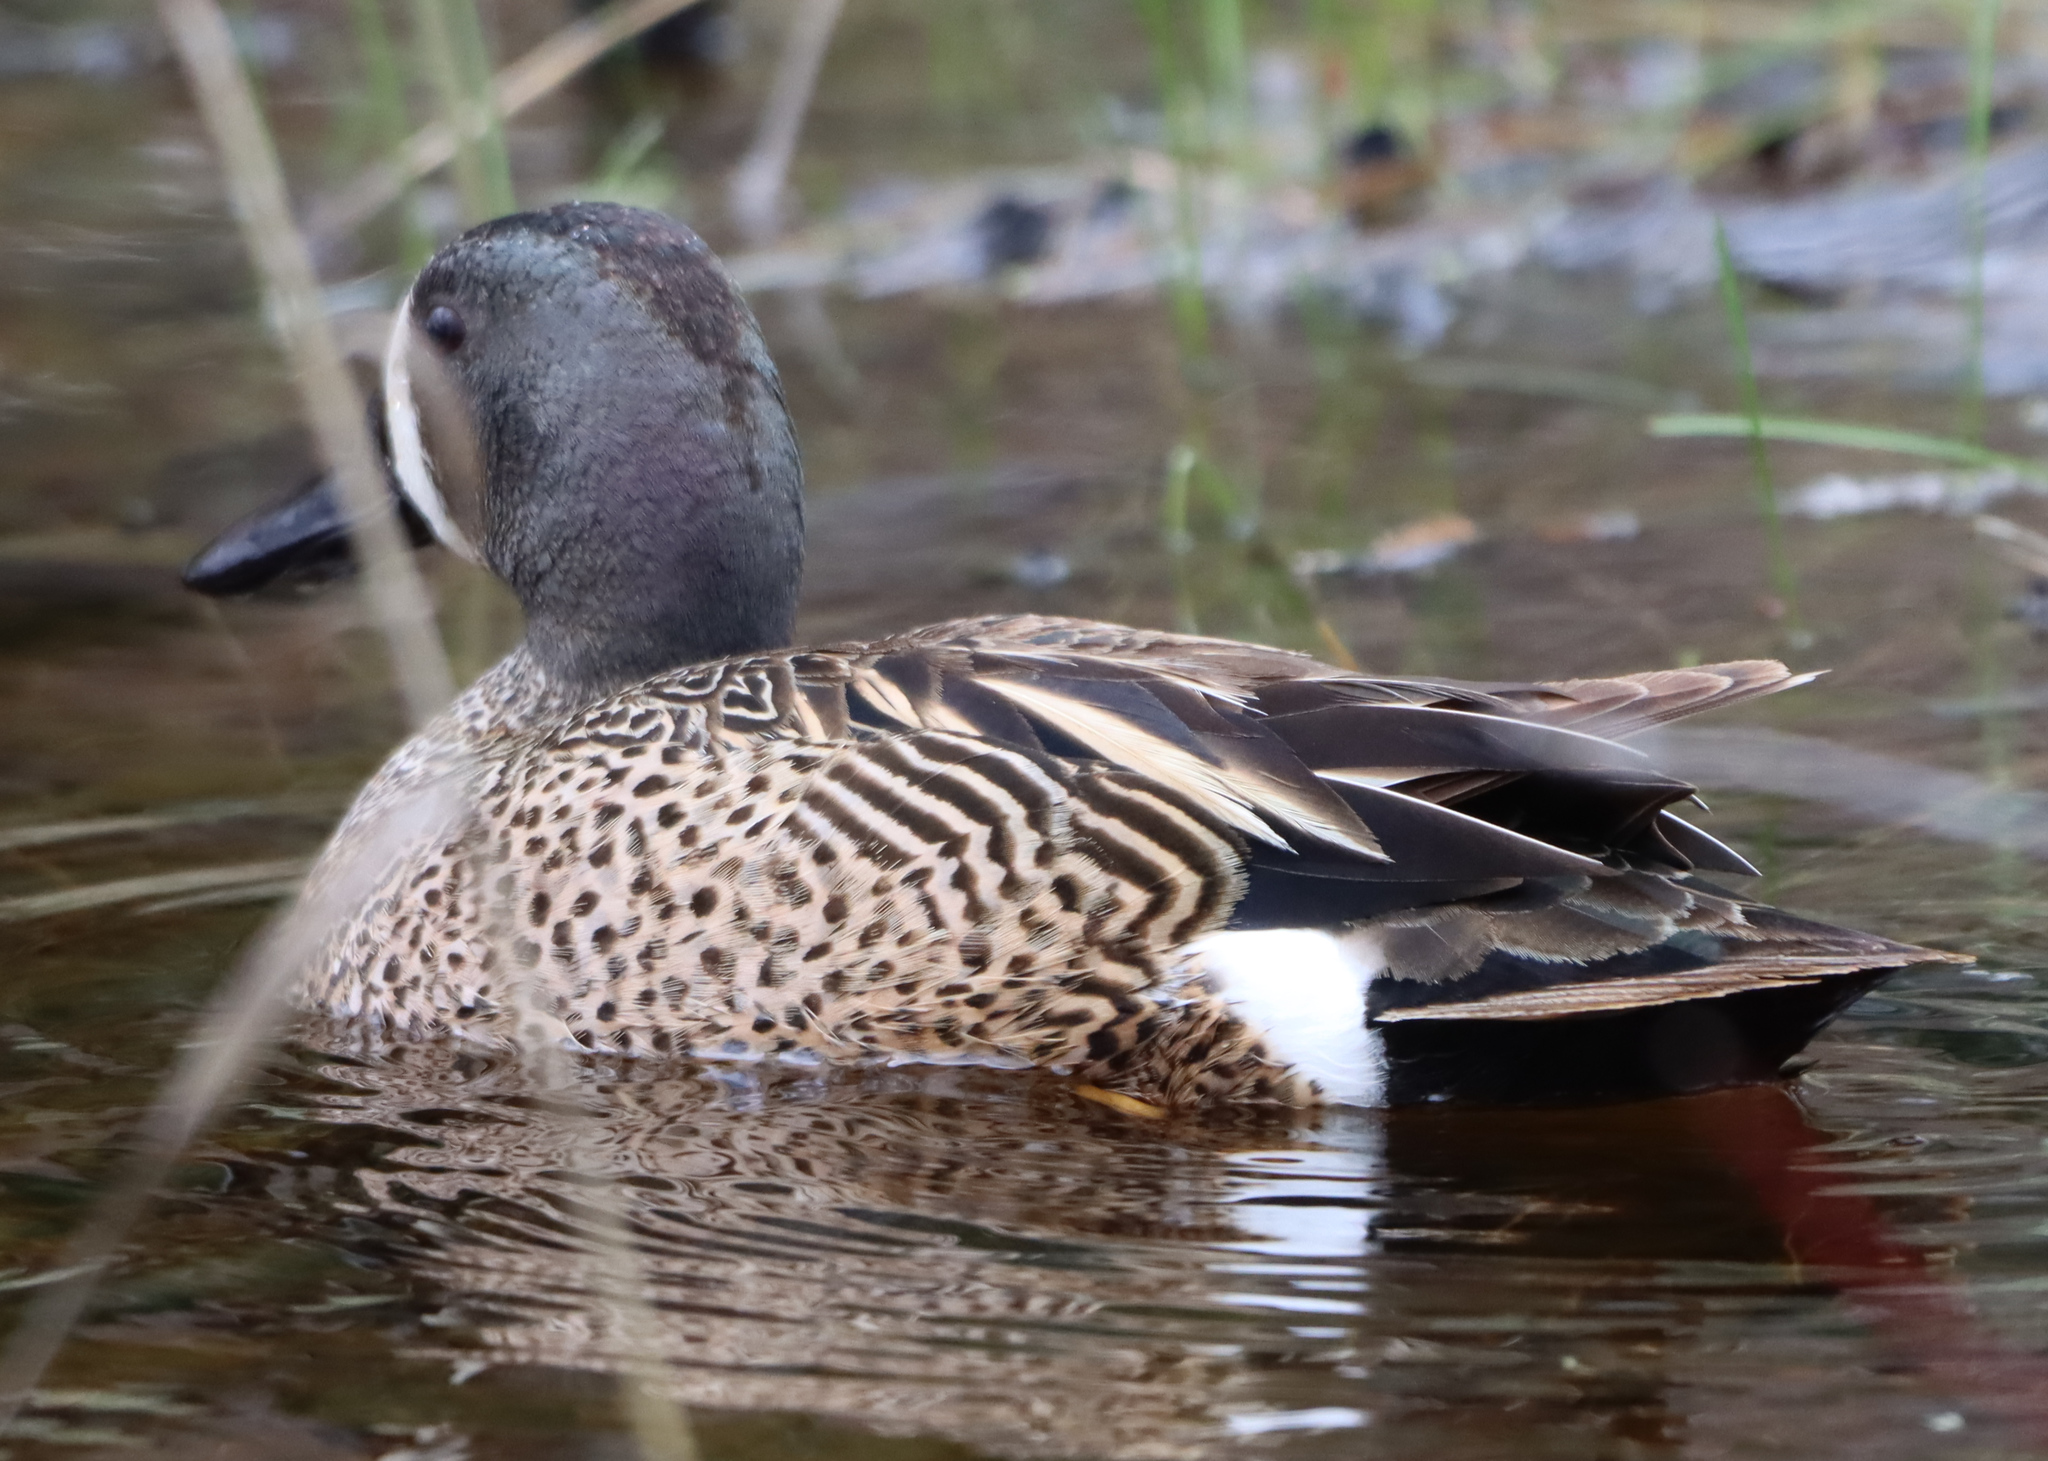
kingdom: Animalia
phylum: Chordata
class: Aves
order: Anseriformes
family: Anatidae
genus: Spatula
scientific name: Spatula discors
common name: Blue-winged teal
